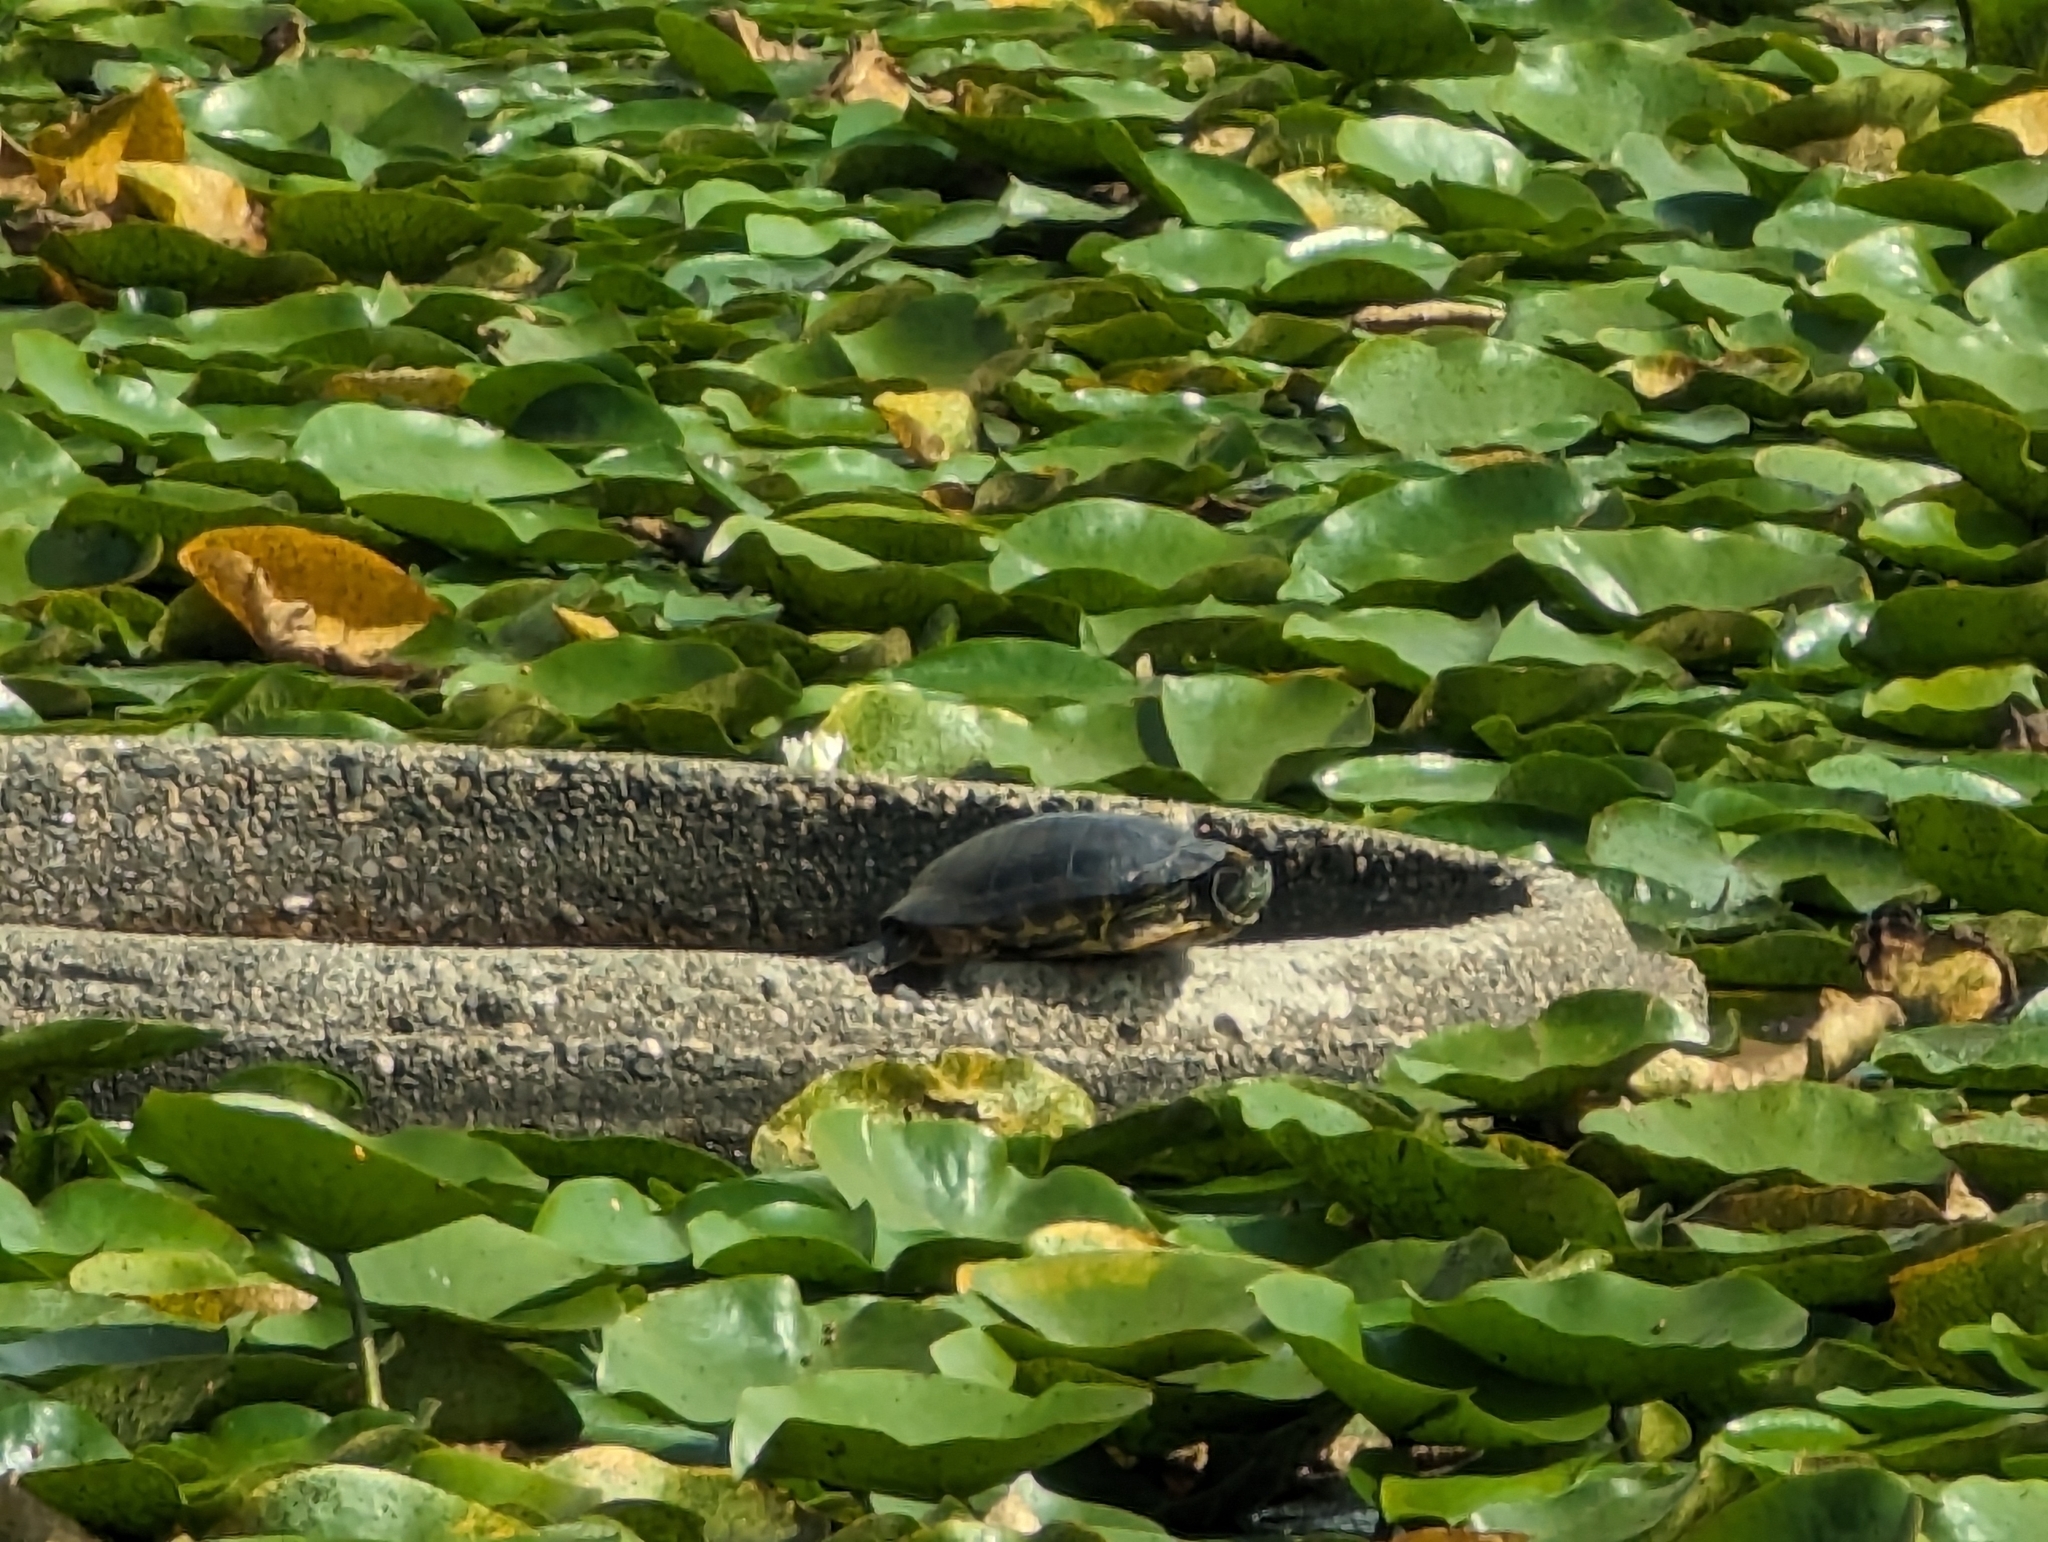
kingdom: Animalia
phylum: Chordata
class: Testudines
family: Emydidae
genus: Trachemys
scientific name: Trachemys scripta
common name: Slider
